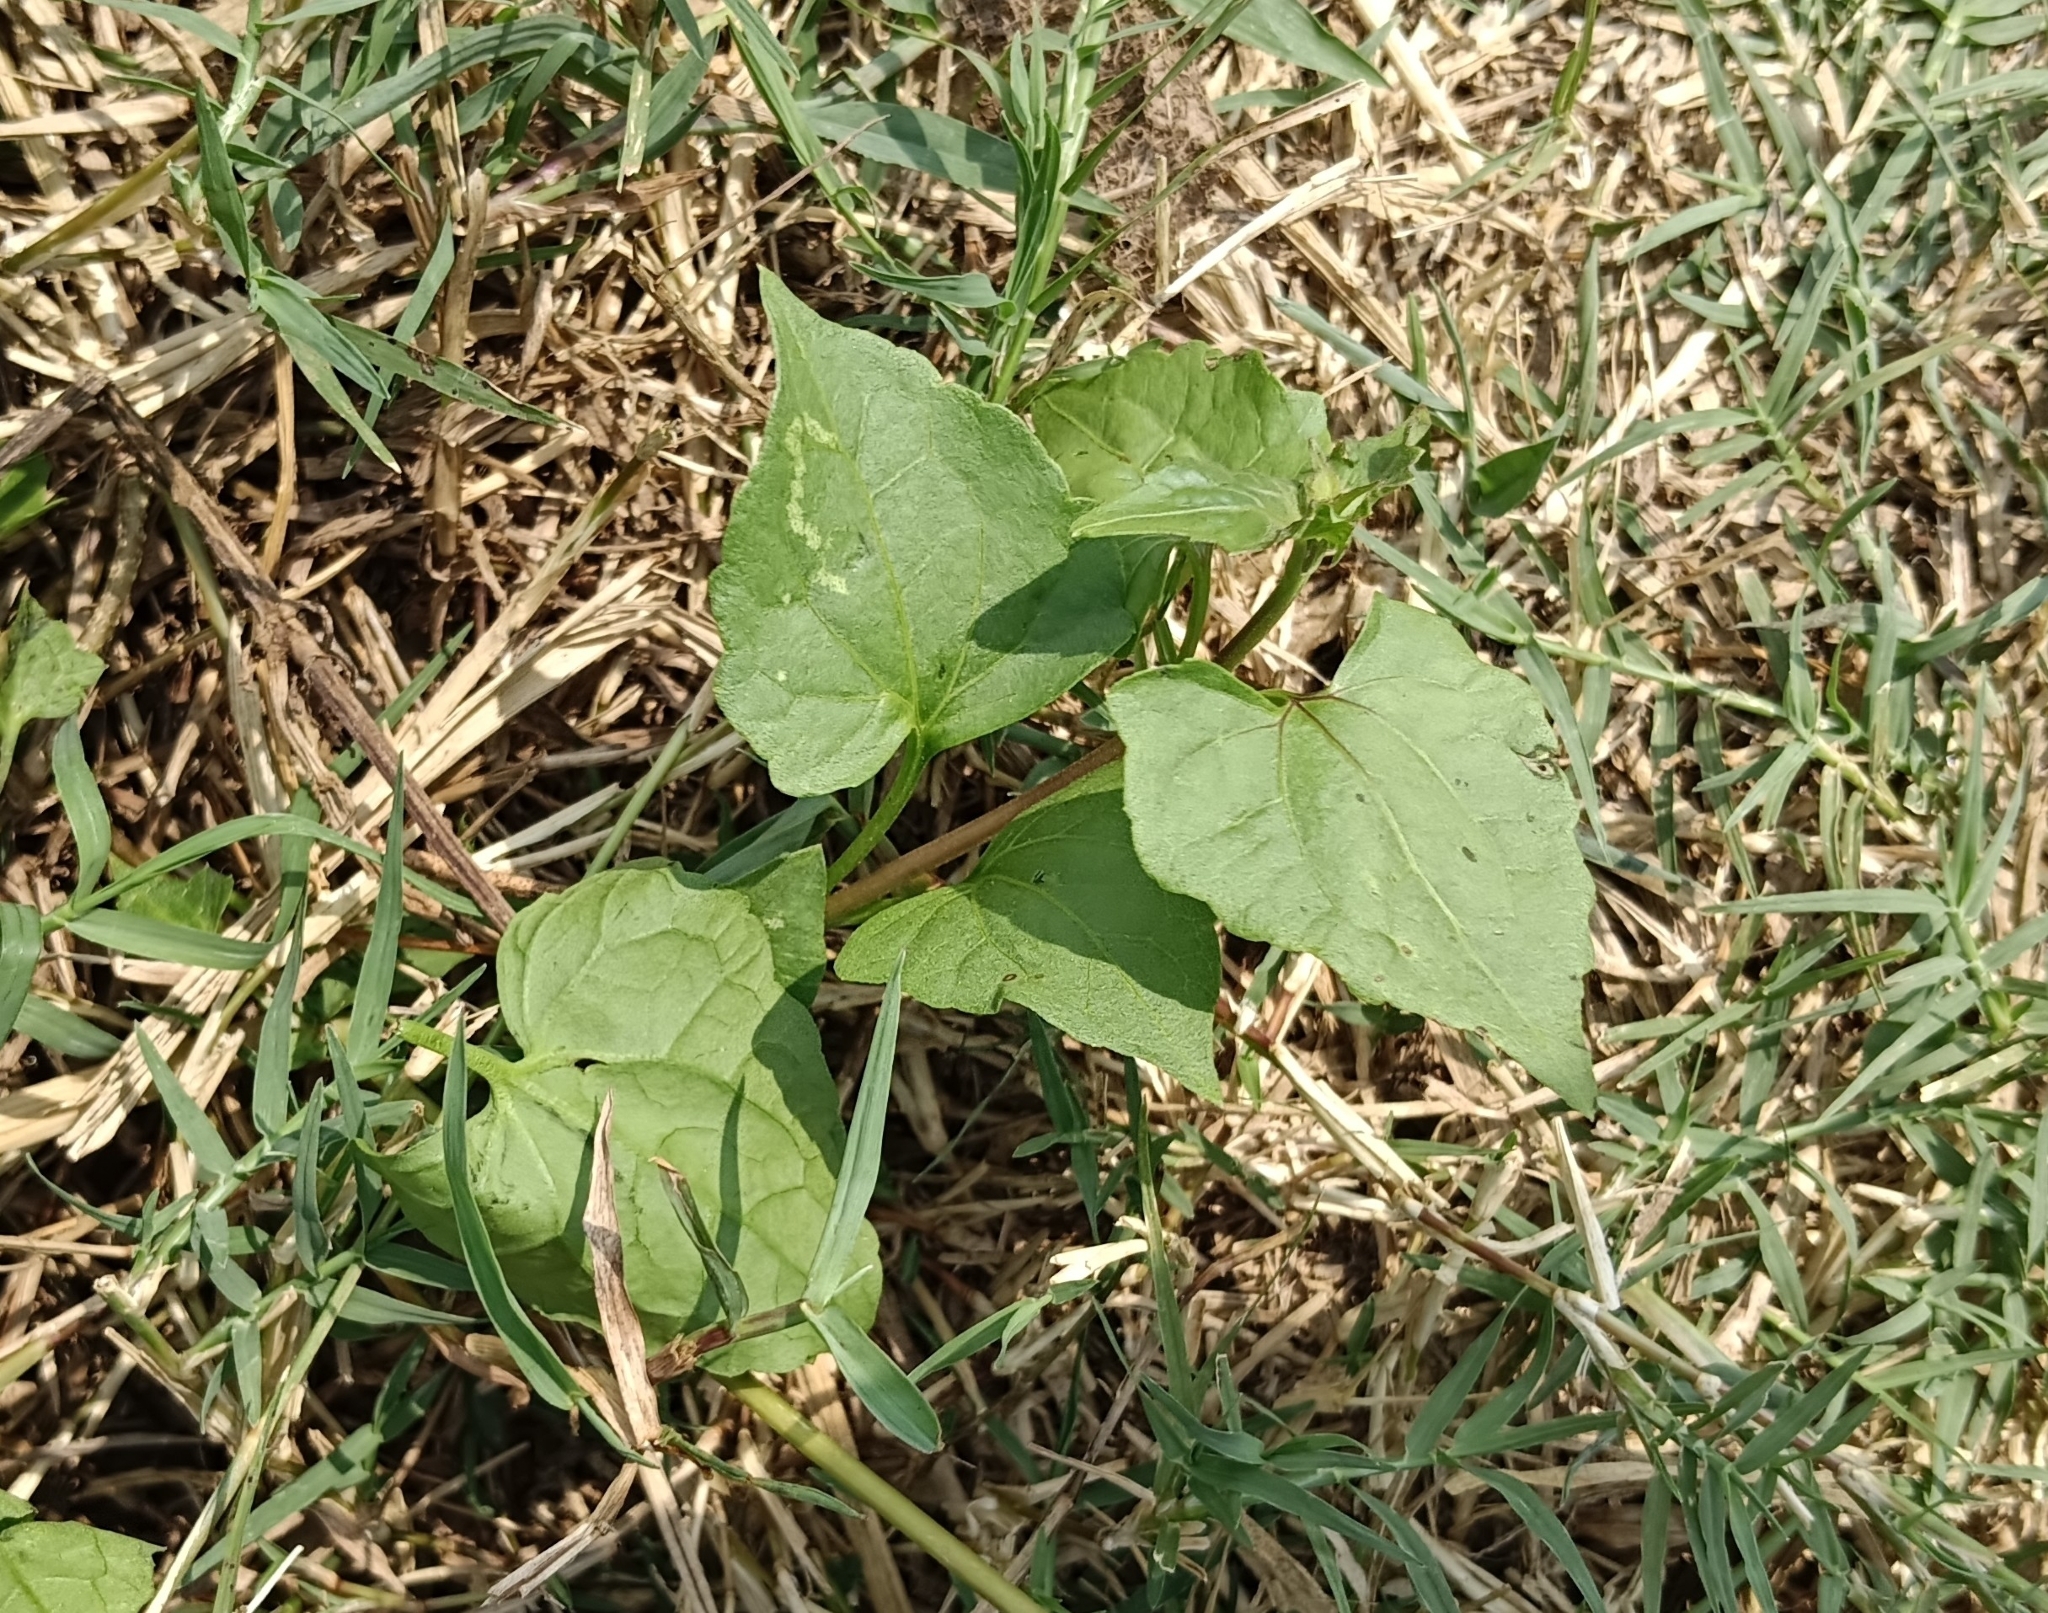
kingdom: Plantae
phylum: Tracheophyta
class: Magnoliopsida
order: Asterales
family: Asteraceae
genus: Mikania
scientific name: Mikania micrantha
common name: Mile-a-minute
